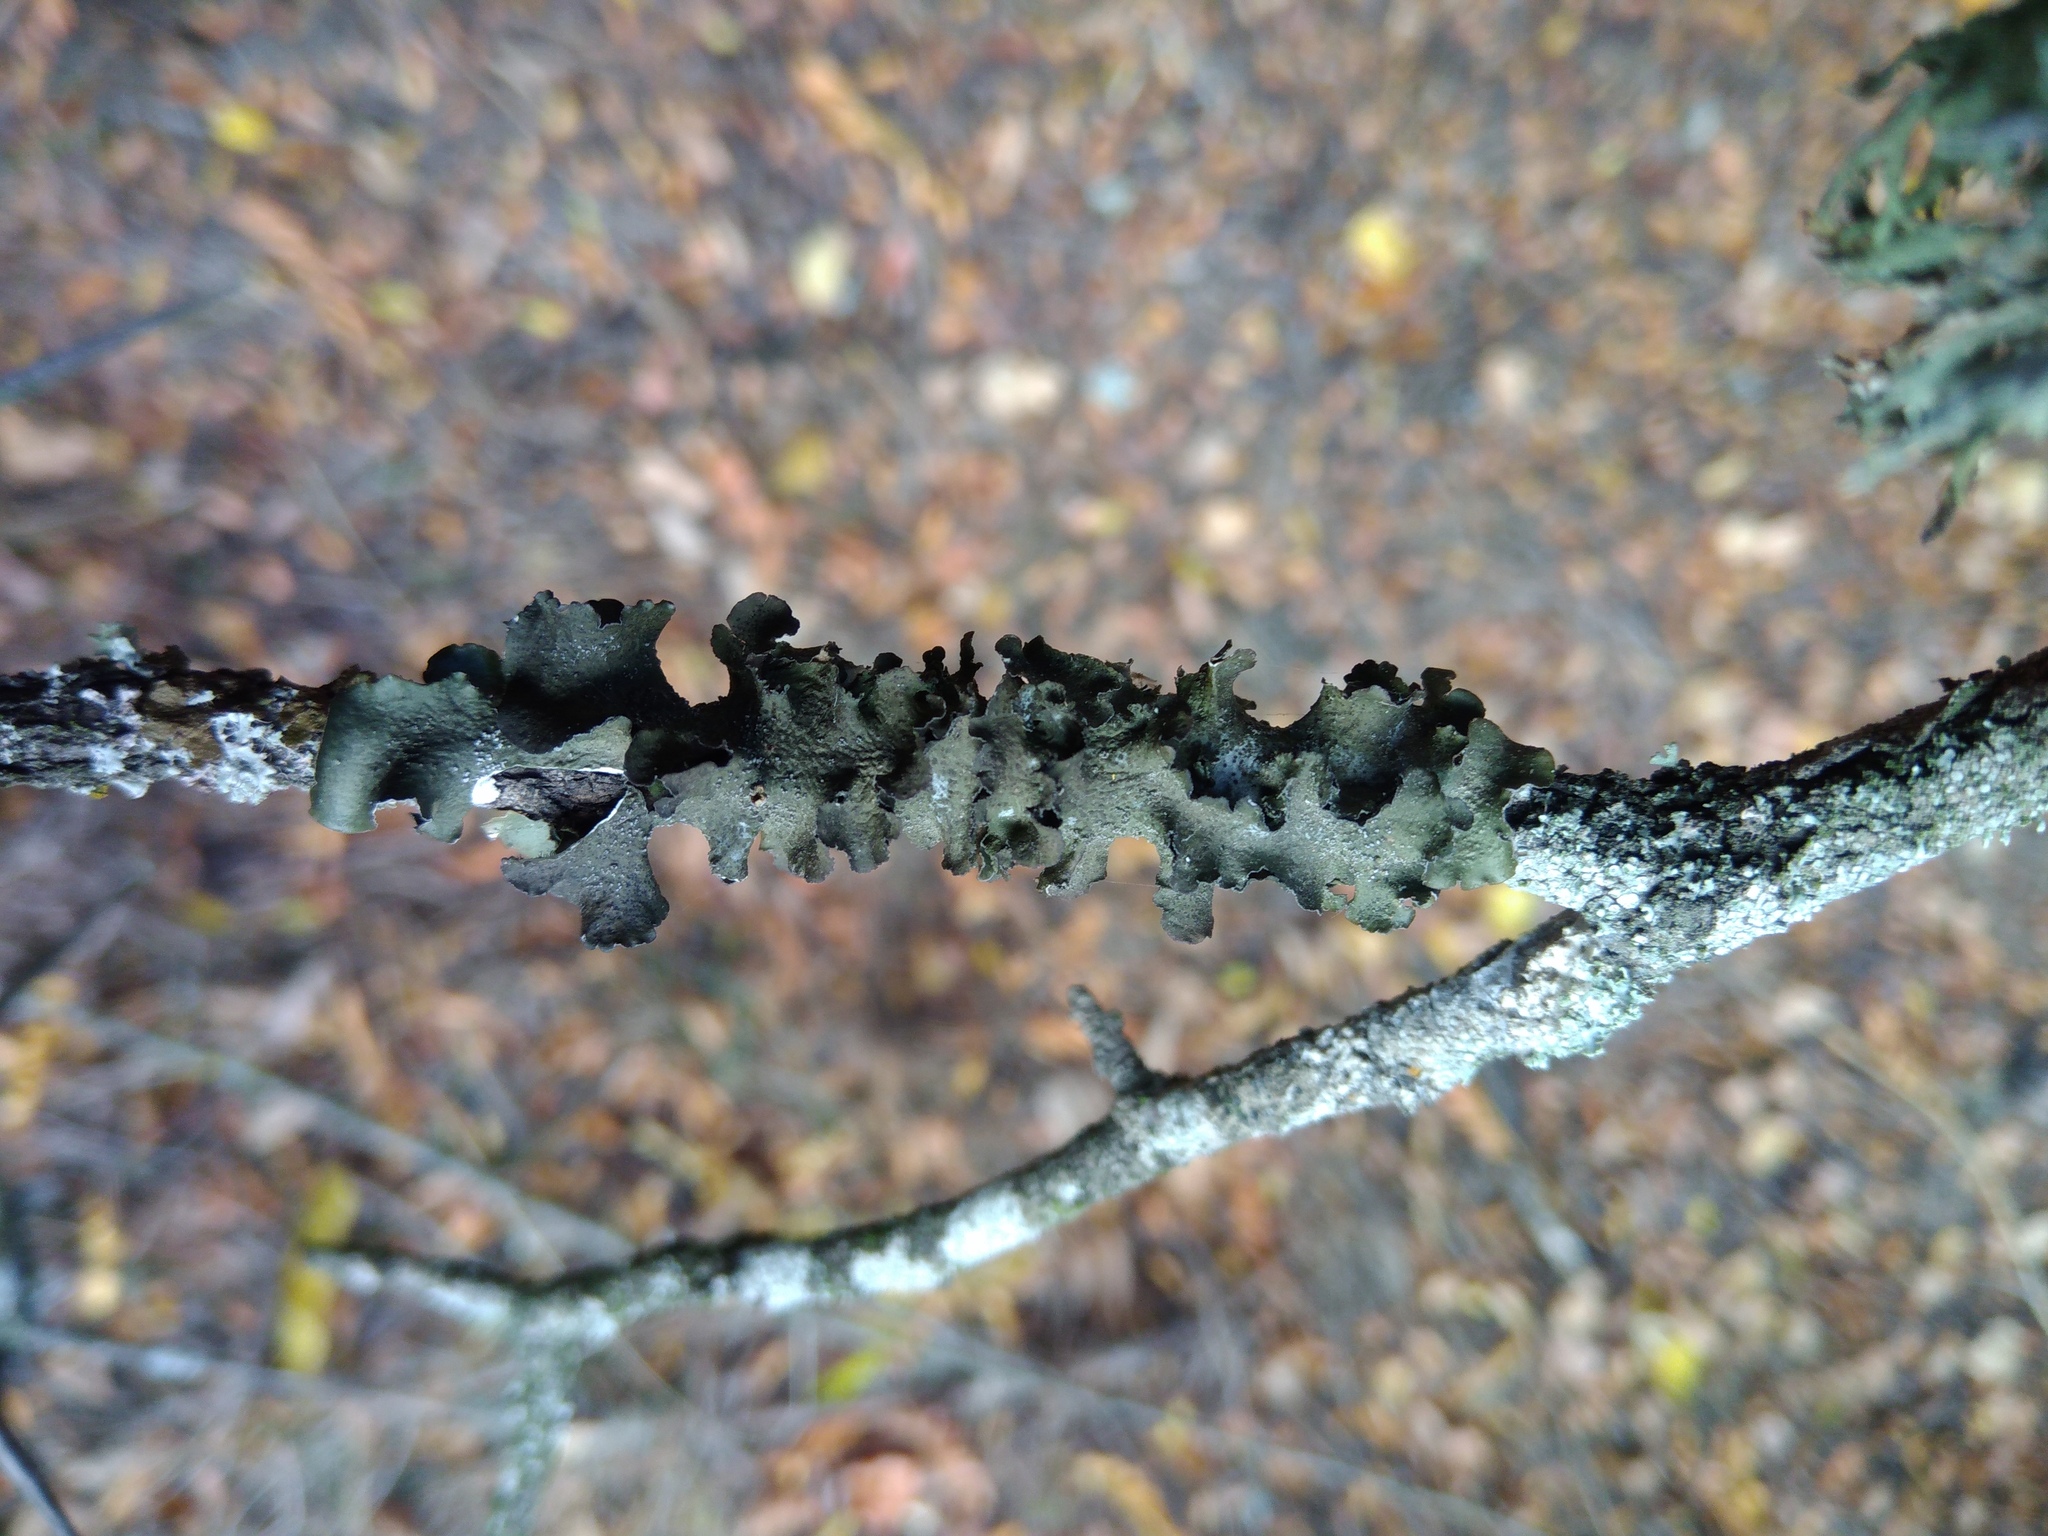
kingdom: Fungi
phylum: Ascomycota
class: Lecanoromycetes
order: Lecanorales
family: Parmeliaceae
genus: Pleurosticta
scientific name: Pleurosticta acetabulum
